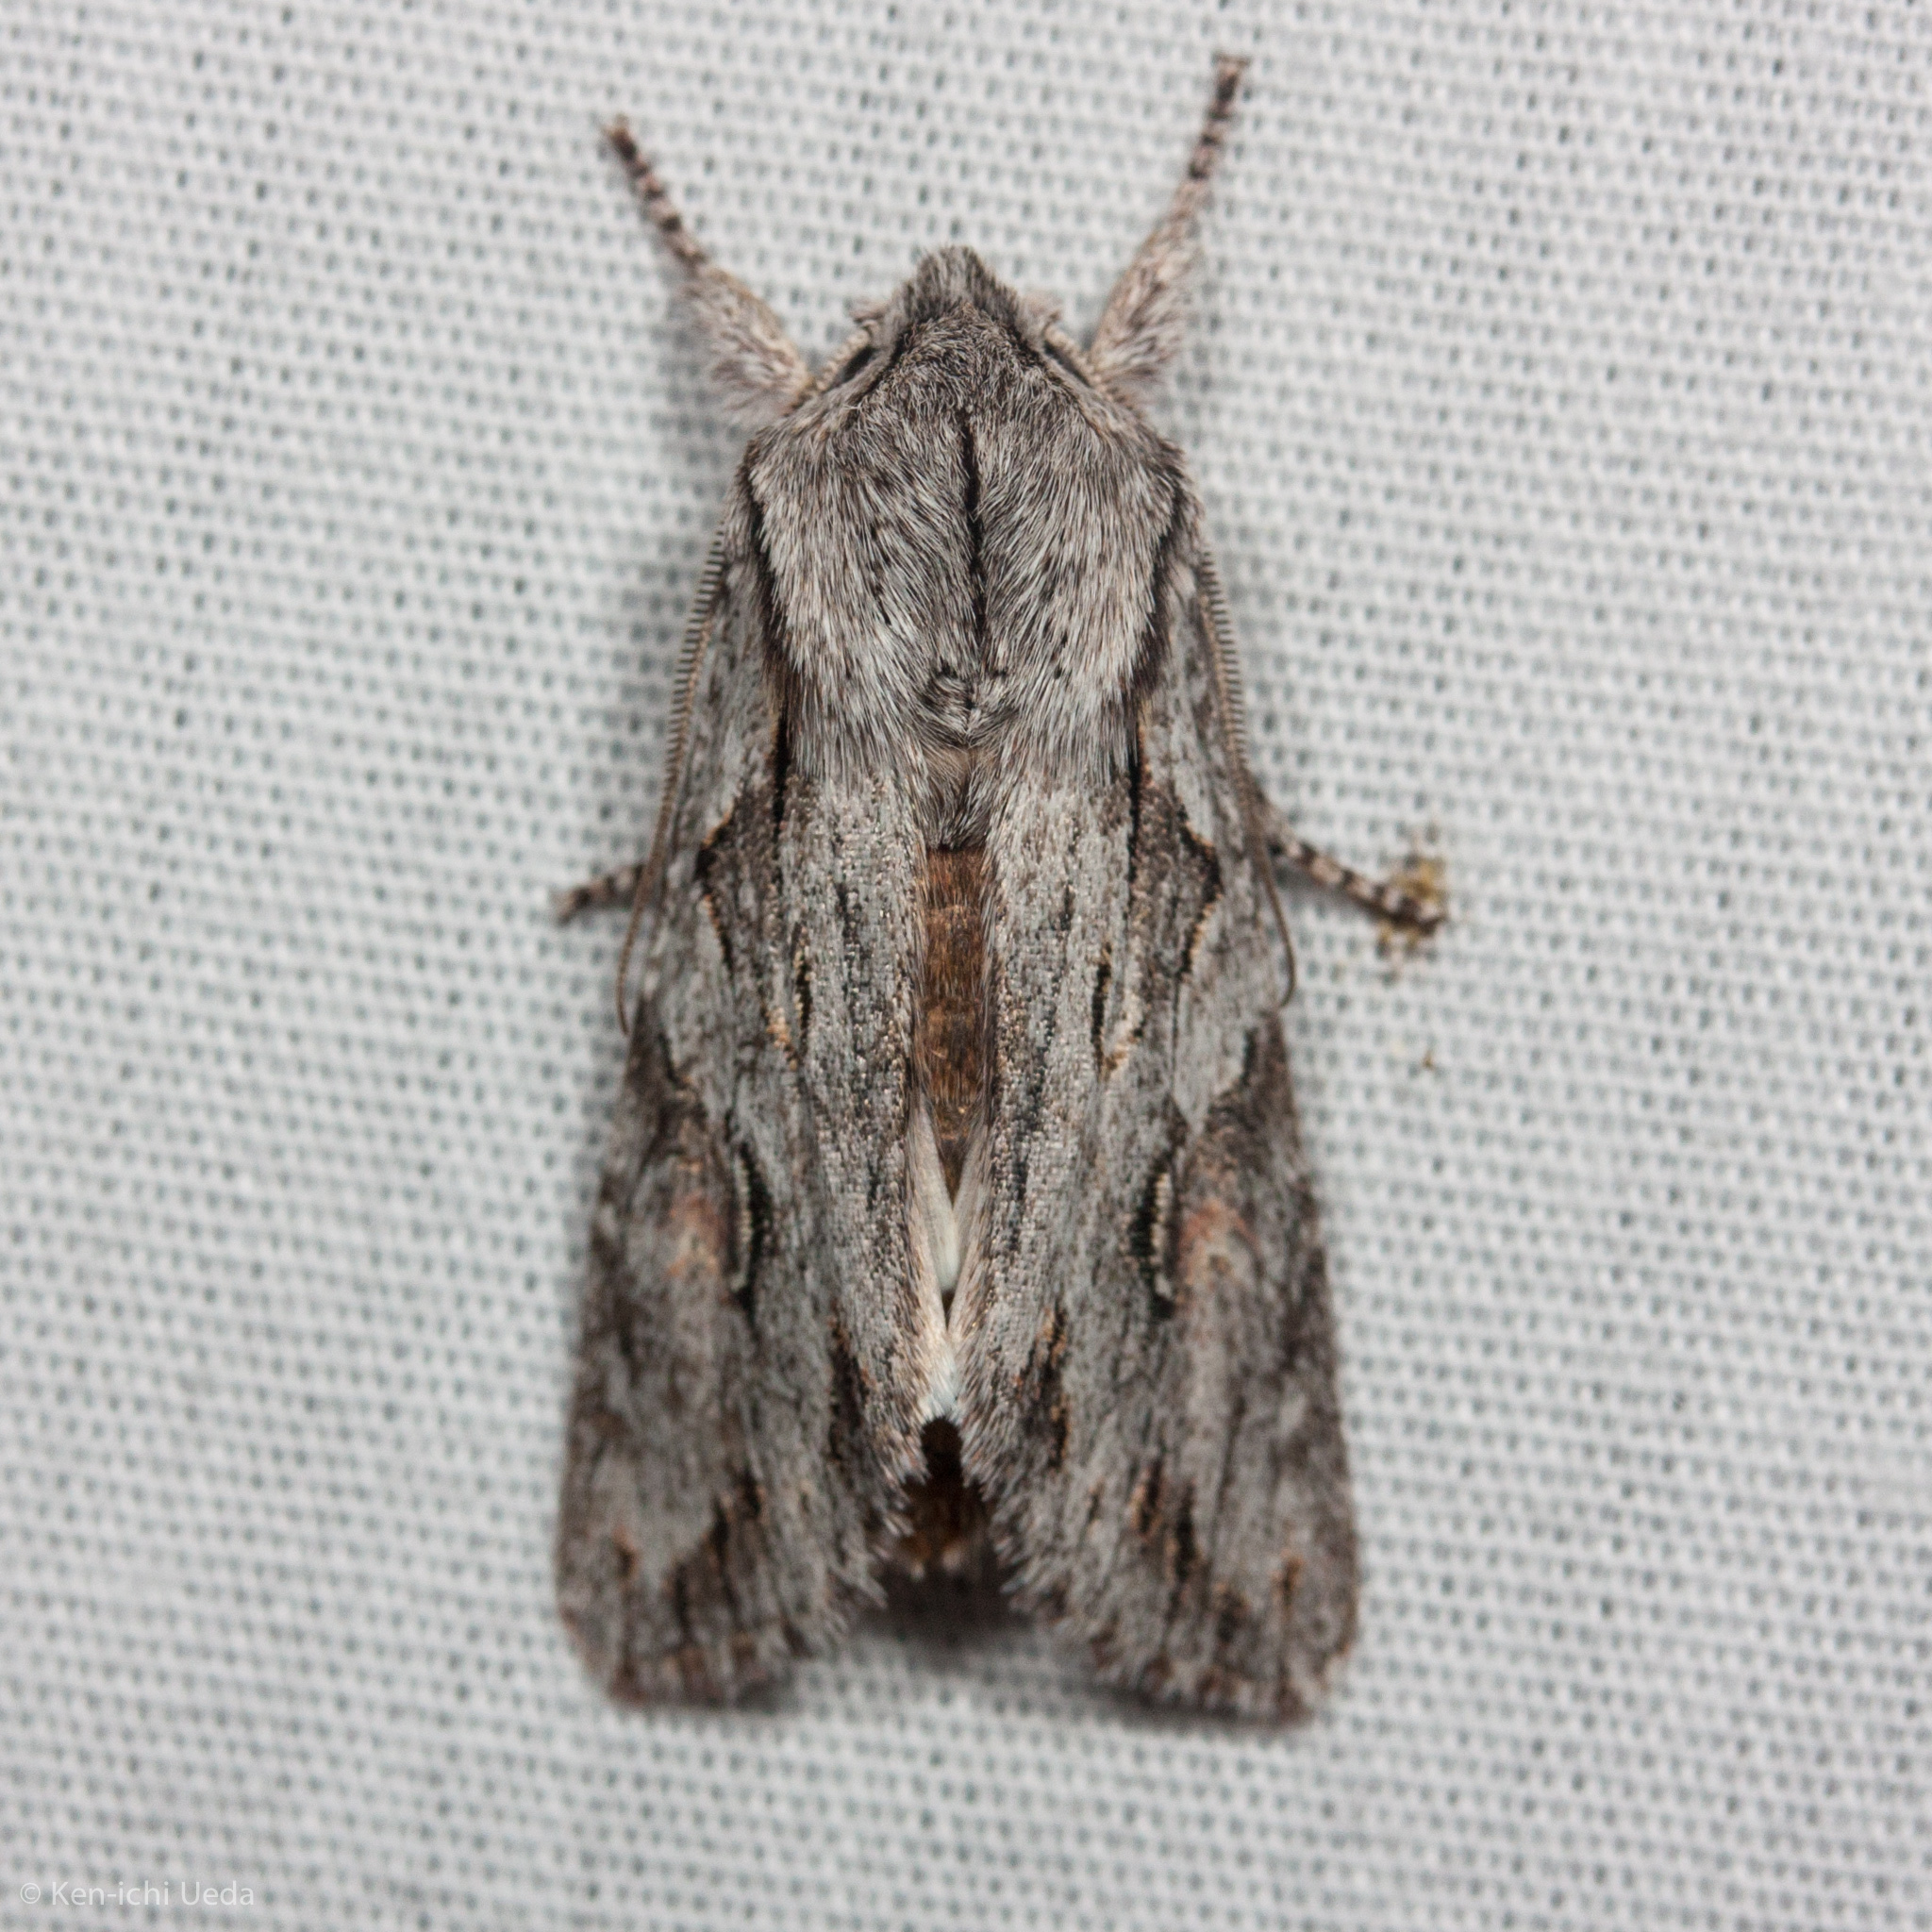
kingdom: Animalia
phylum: Arthropoda
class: Insecta
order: Lepidoptera
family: Noctuidae
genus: Egira
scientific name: Egira crucialis
